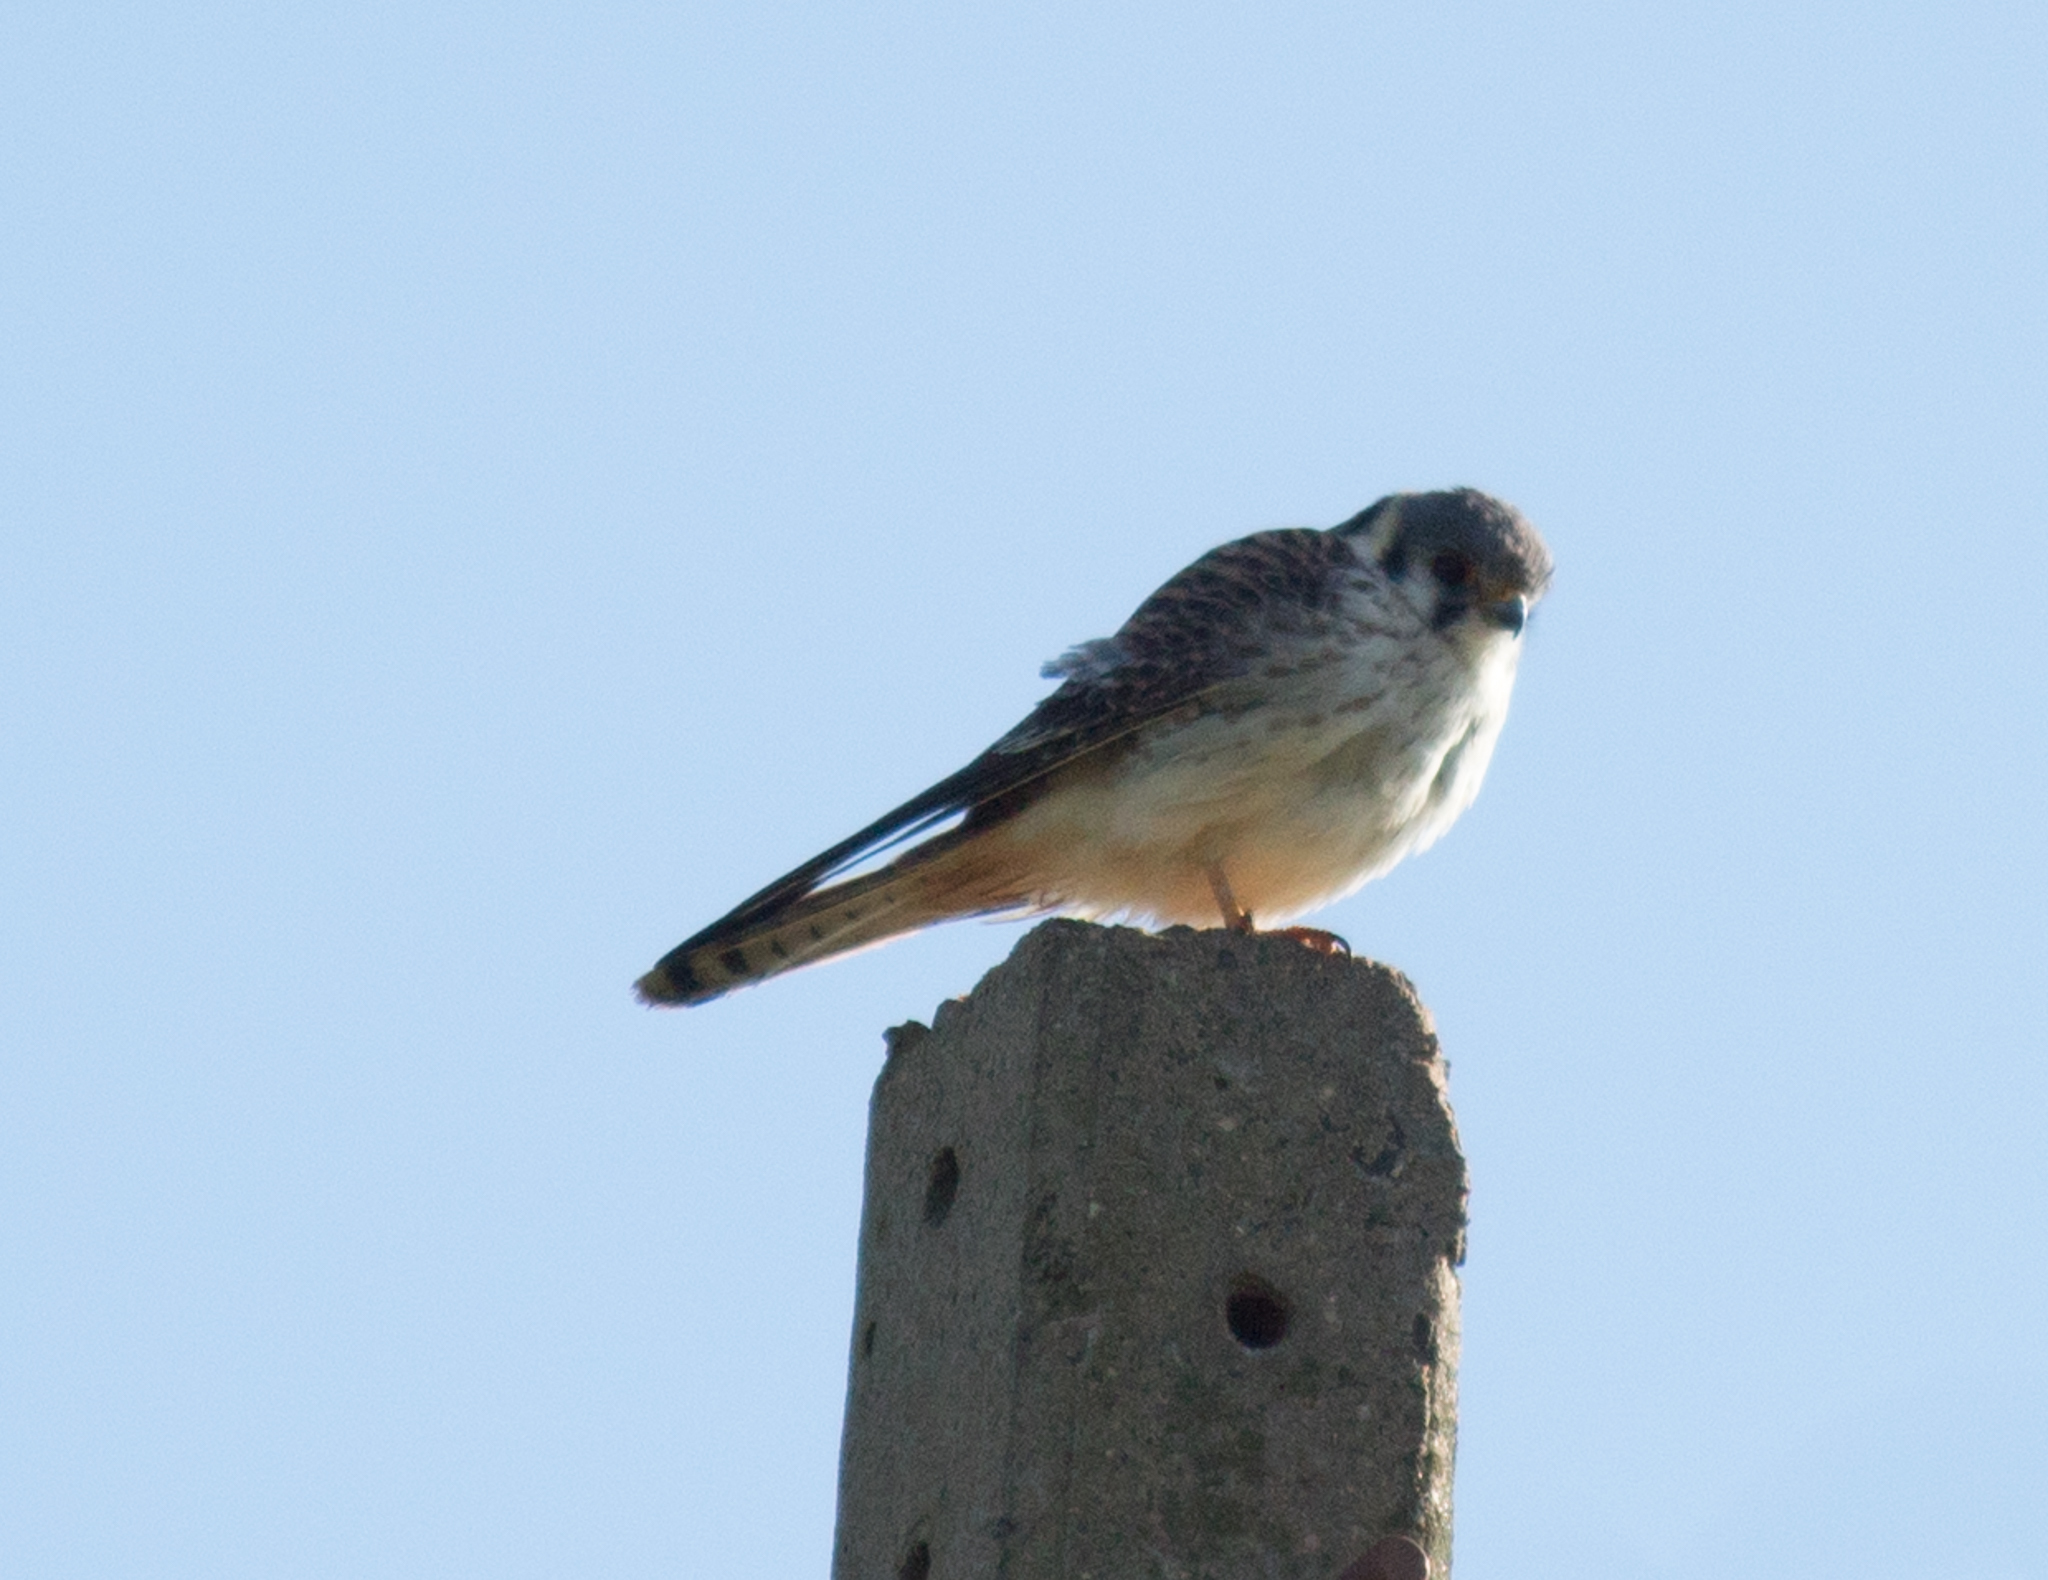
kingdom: Animalia
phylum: Chordata
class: Aves
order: Falconiformes
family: Falconidae
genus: Falco
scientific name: Falco sparverius
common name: American kestrel
